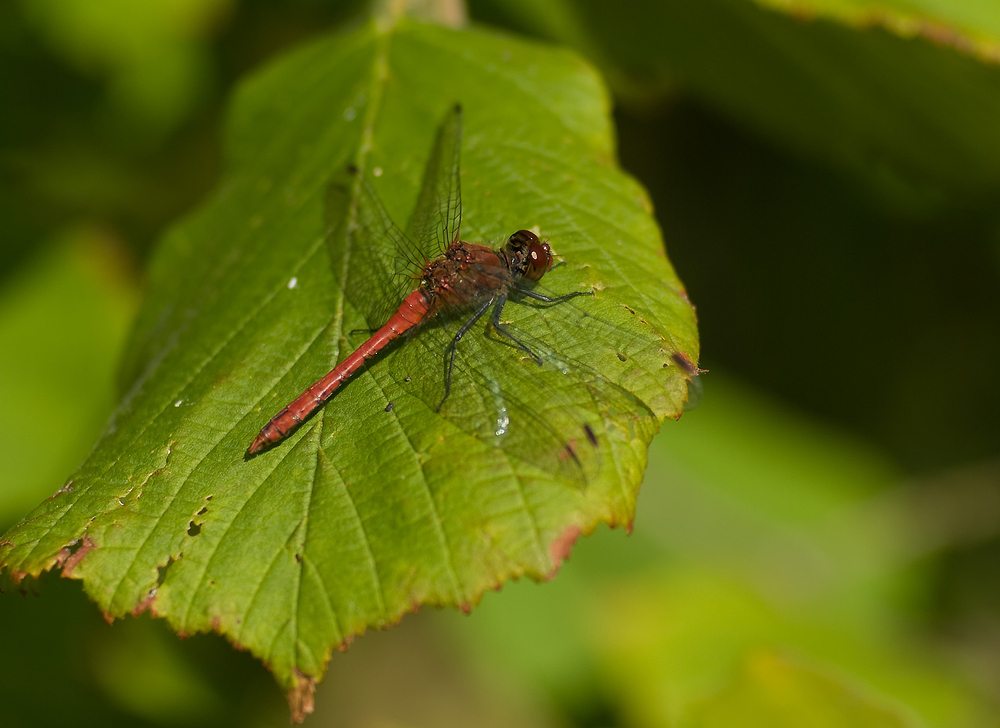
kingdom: Animalia
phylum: Arthropoda
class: Insecta
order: Odonata
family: Libellulidae
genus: Sympetrum
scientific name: Sympetrum sanguineum
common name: Ruddy darter
